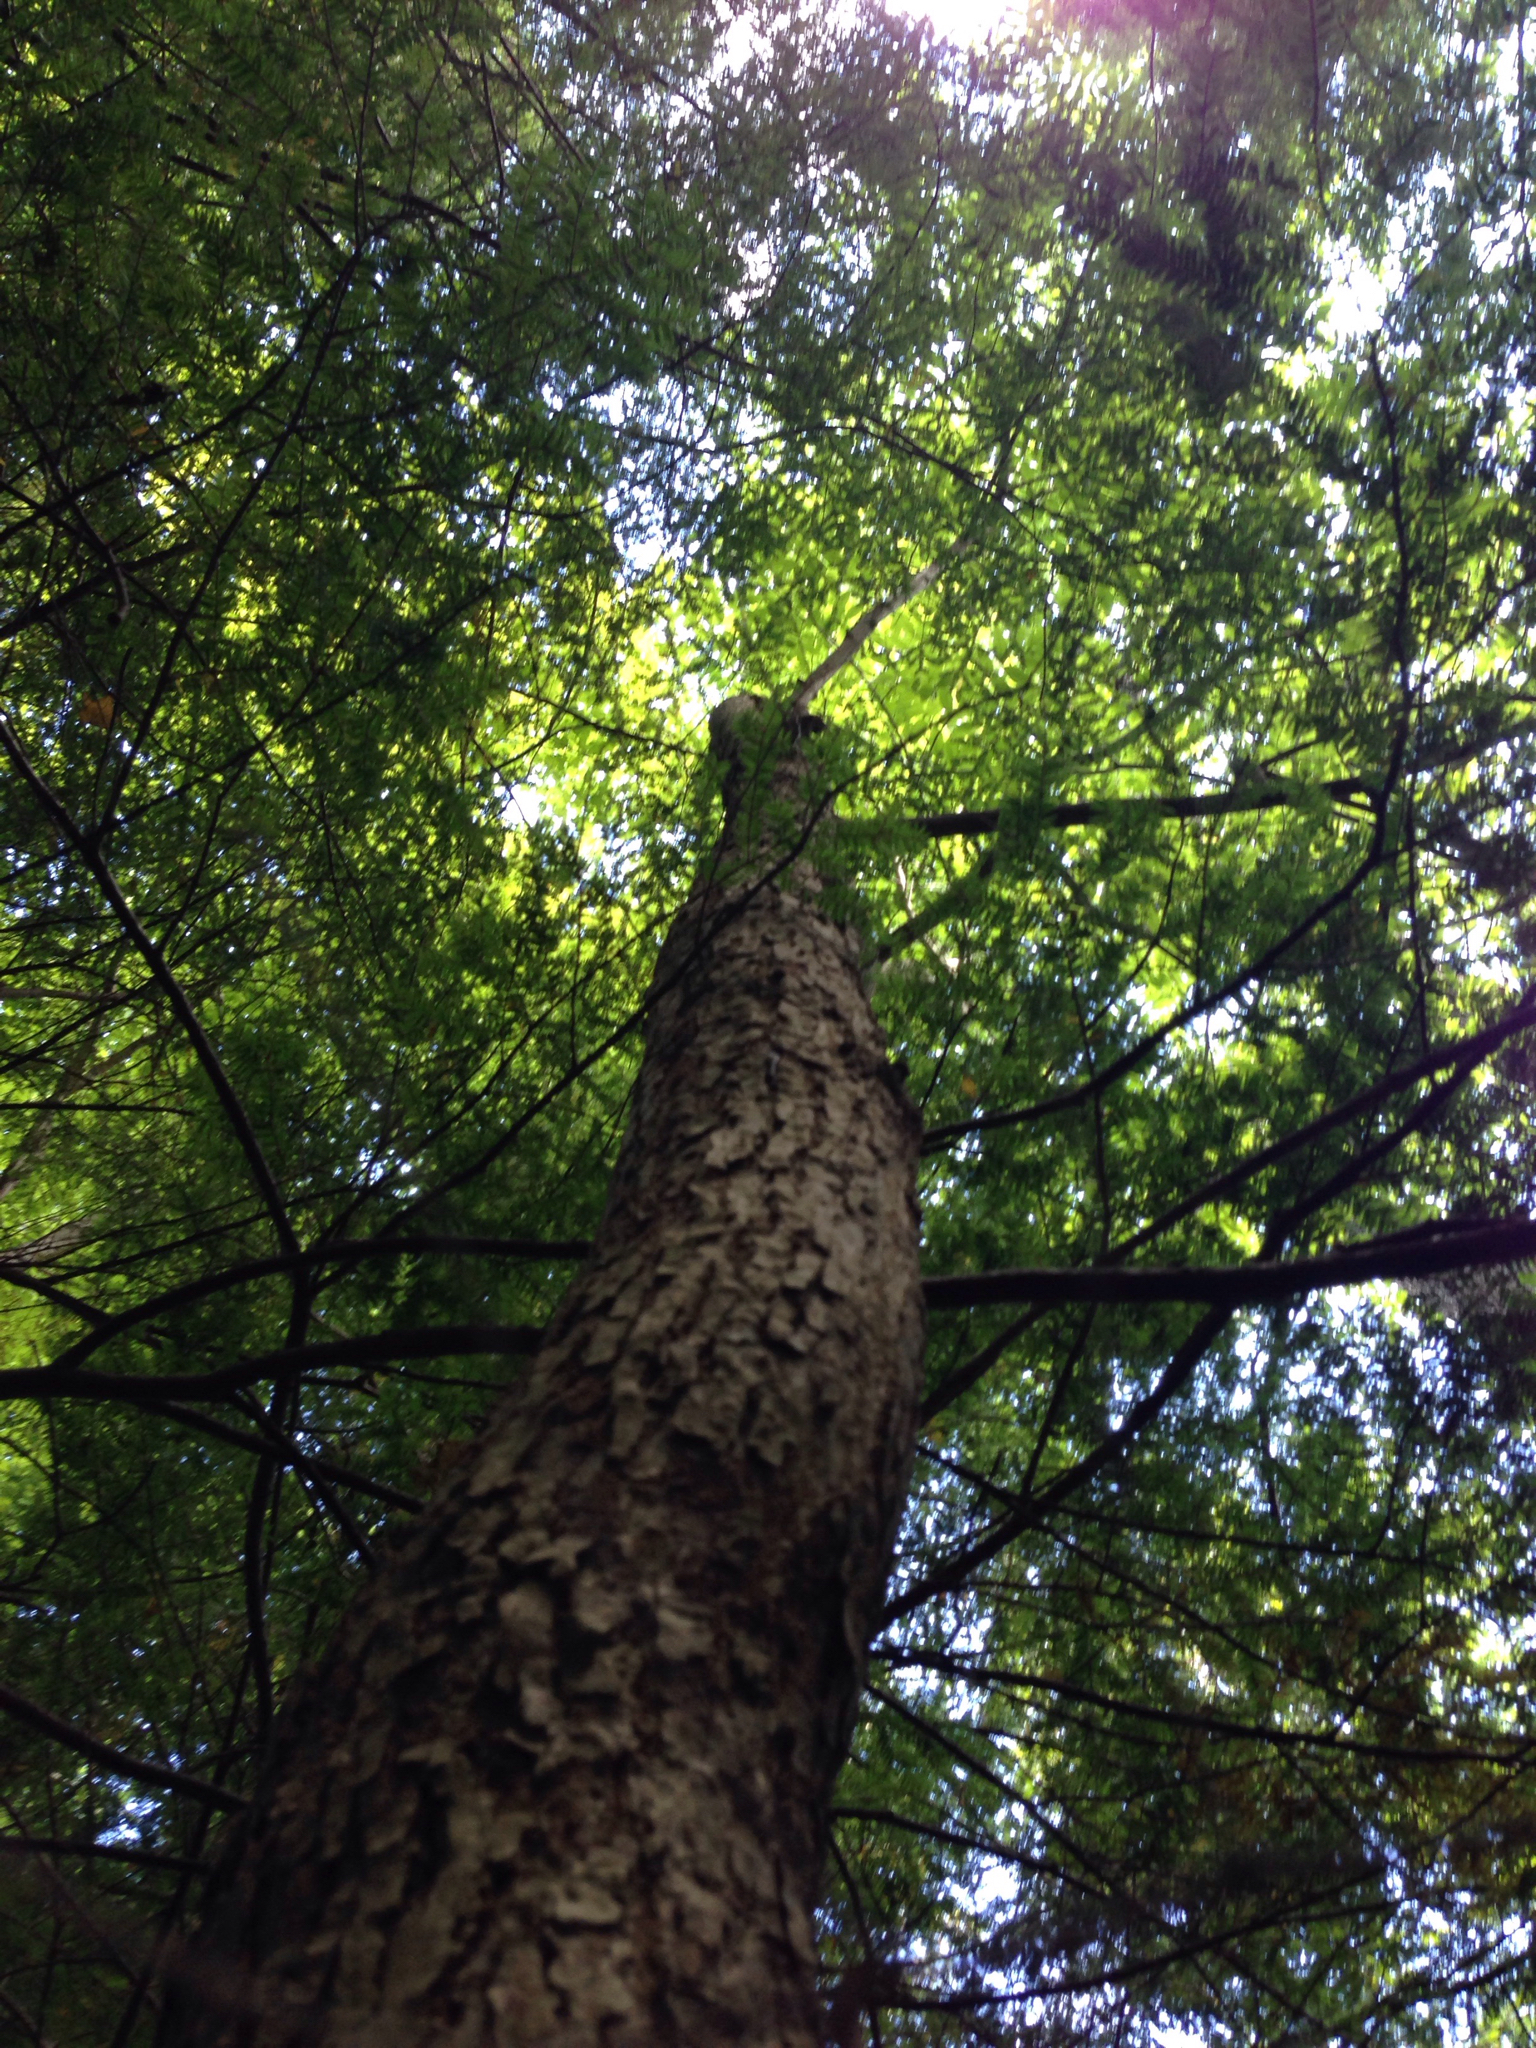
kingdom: Plantae
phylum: Tracheophyta
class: Magnoliopsida
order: Lamiales
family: Oleaceae
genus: Fraxinus
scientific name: Fraxinus nigra
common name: Black ash
